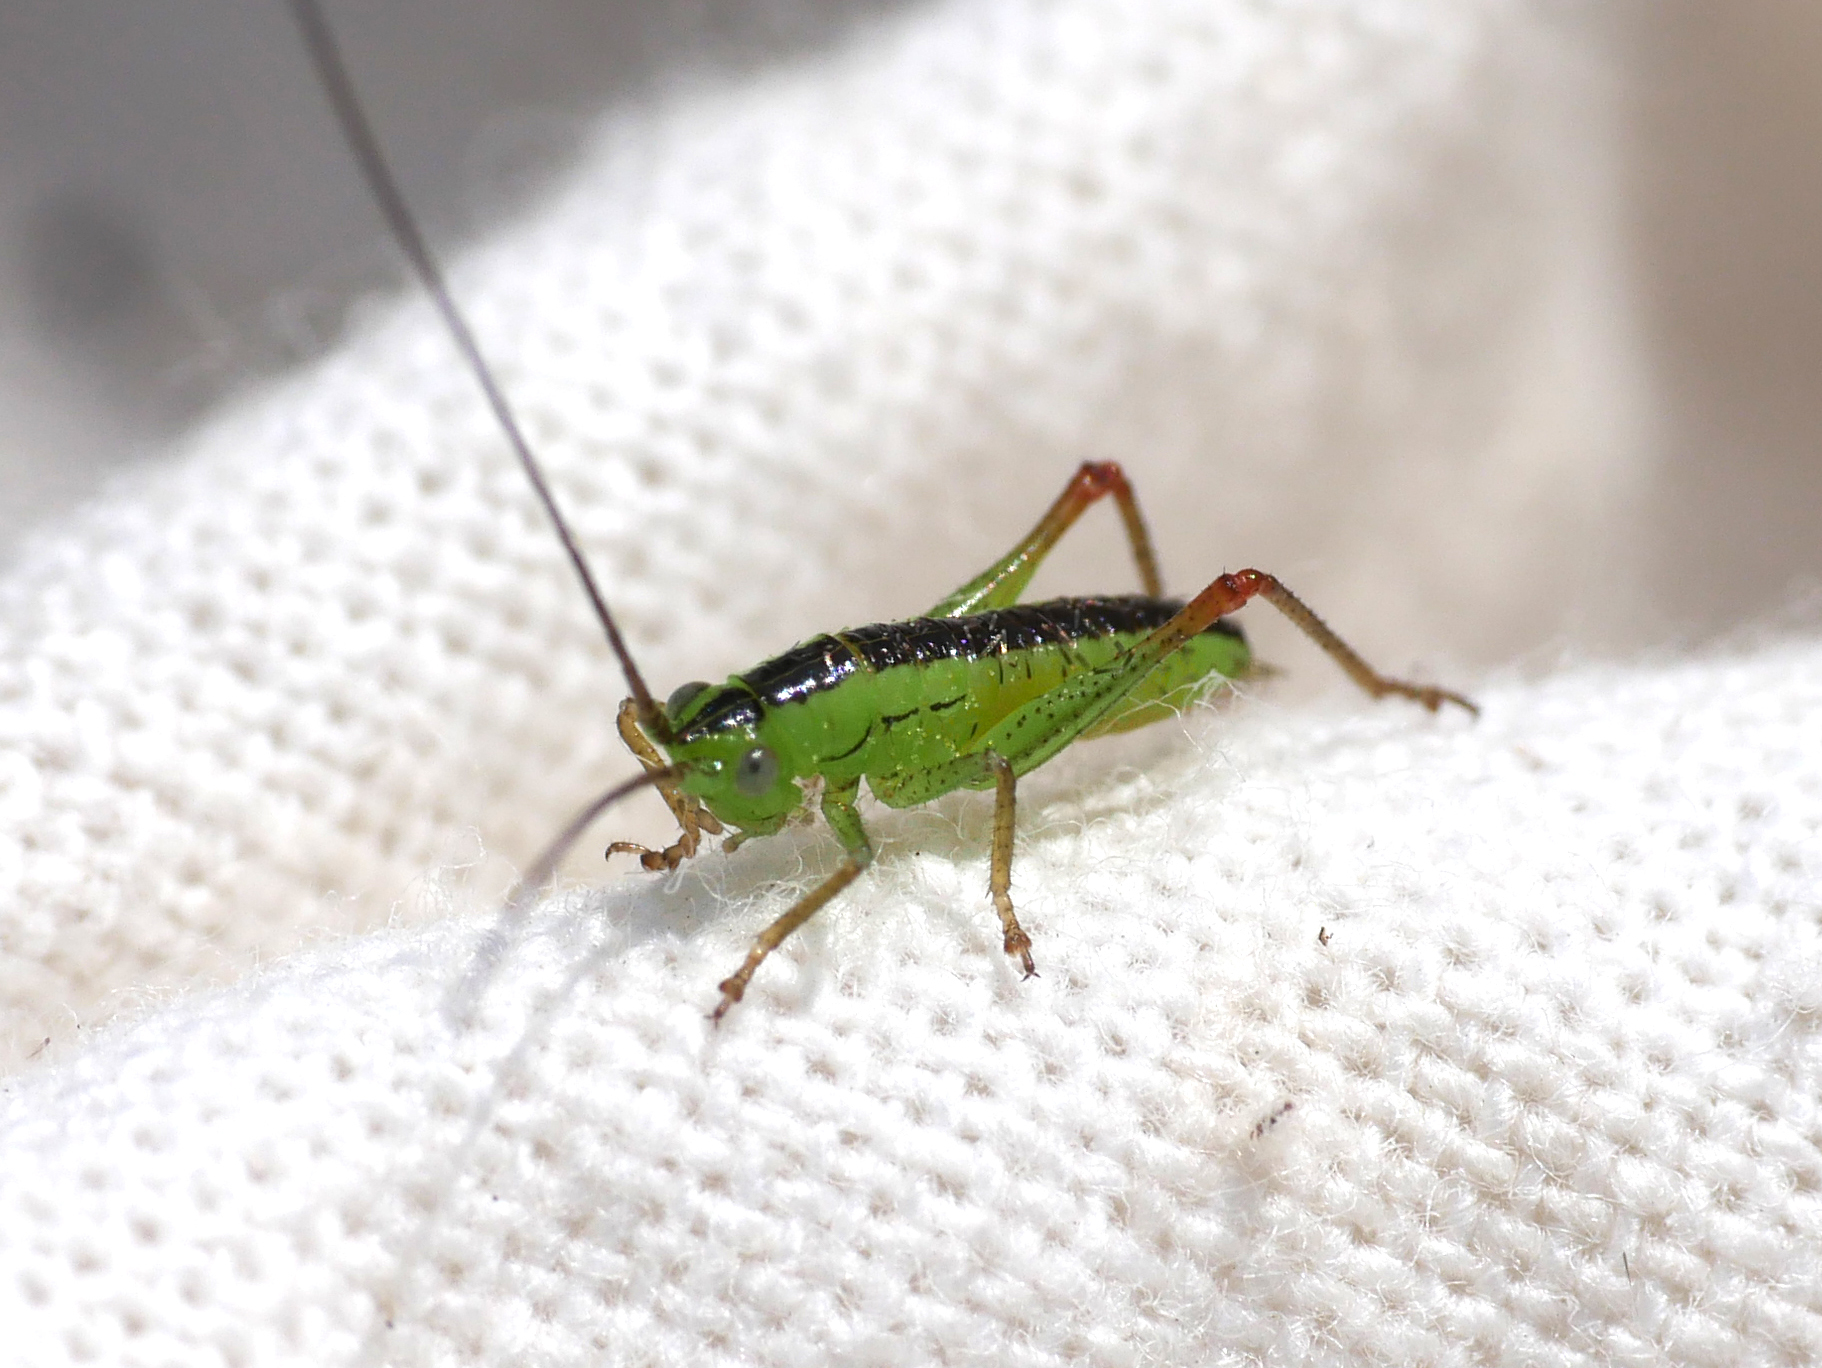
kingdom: Animalia
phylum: Arthropoda
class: Insecta
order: Orthoptera
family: Tettigoniidae
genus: Conocephalus
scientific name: Conocephalus dorsalis
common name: Short-winged conehead
